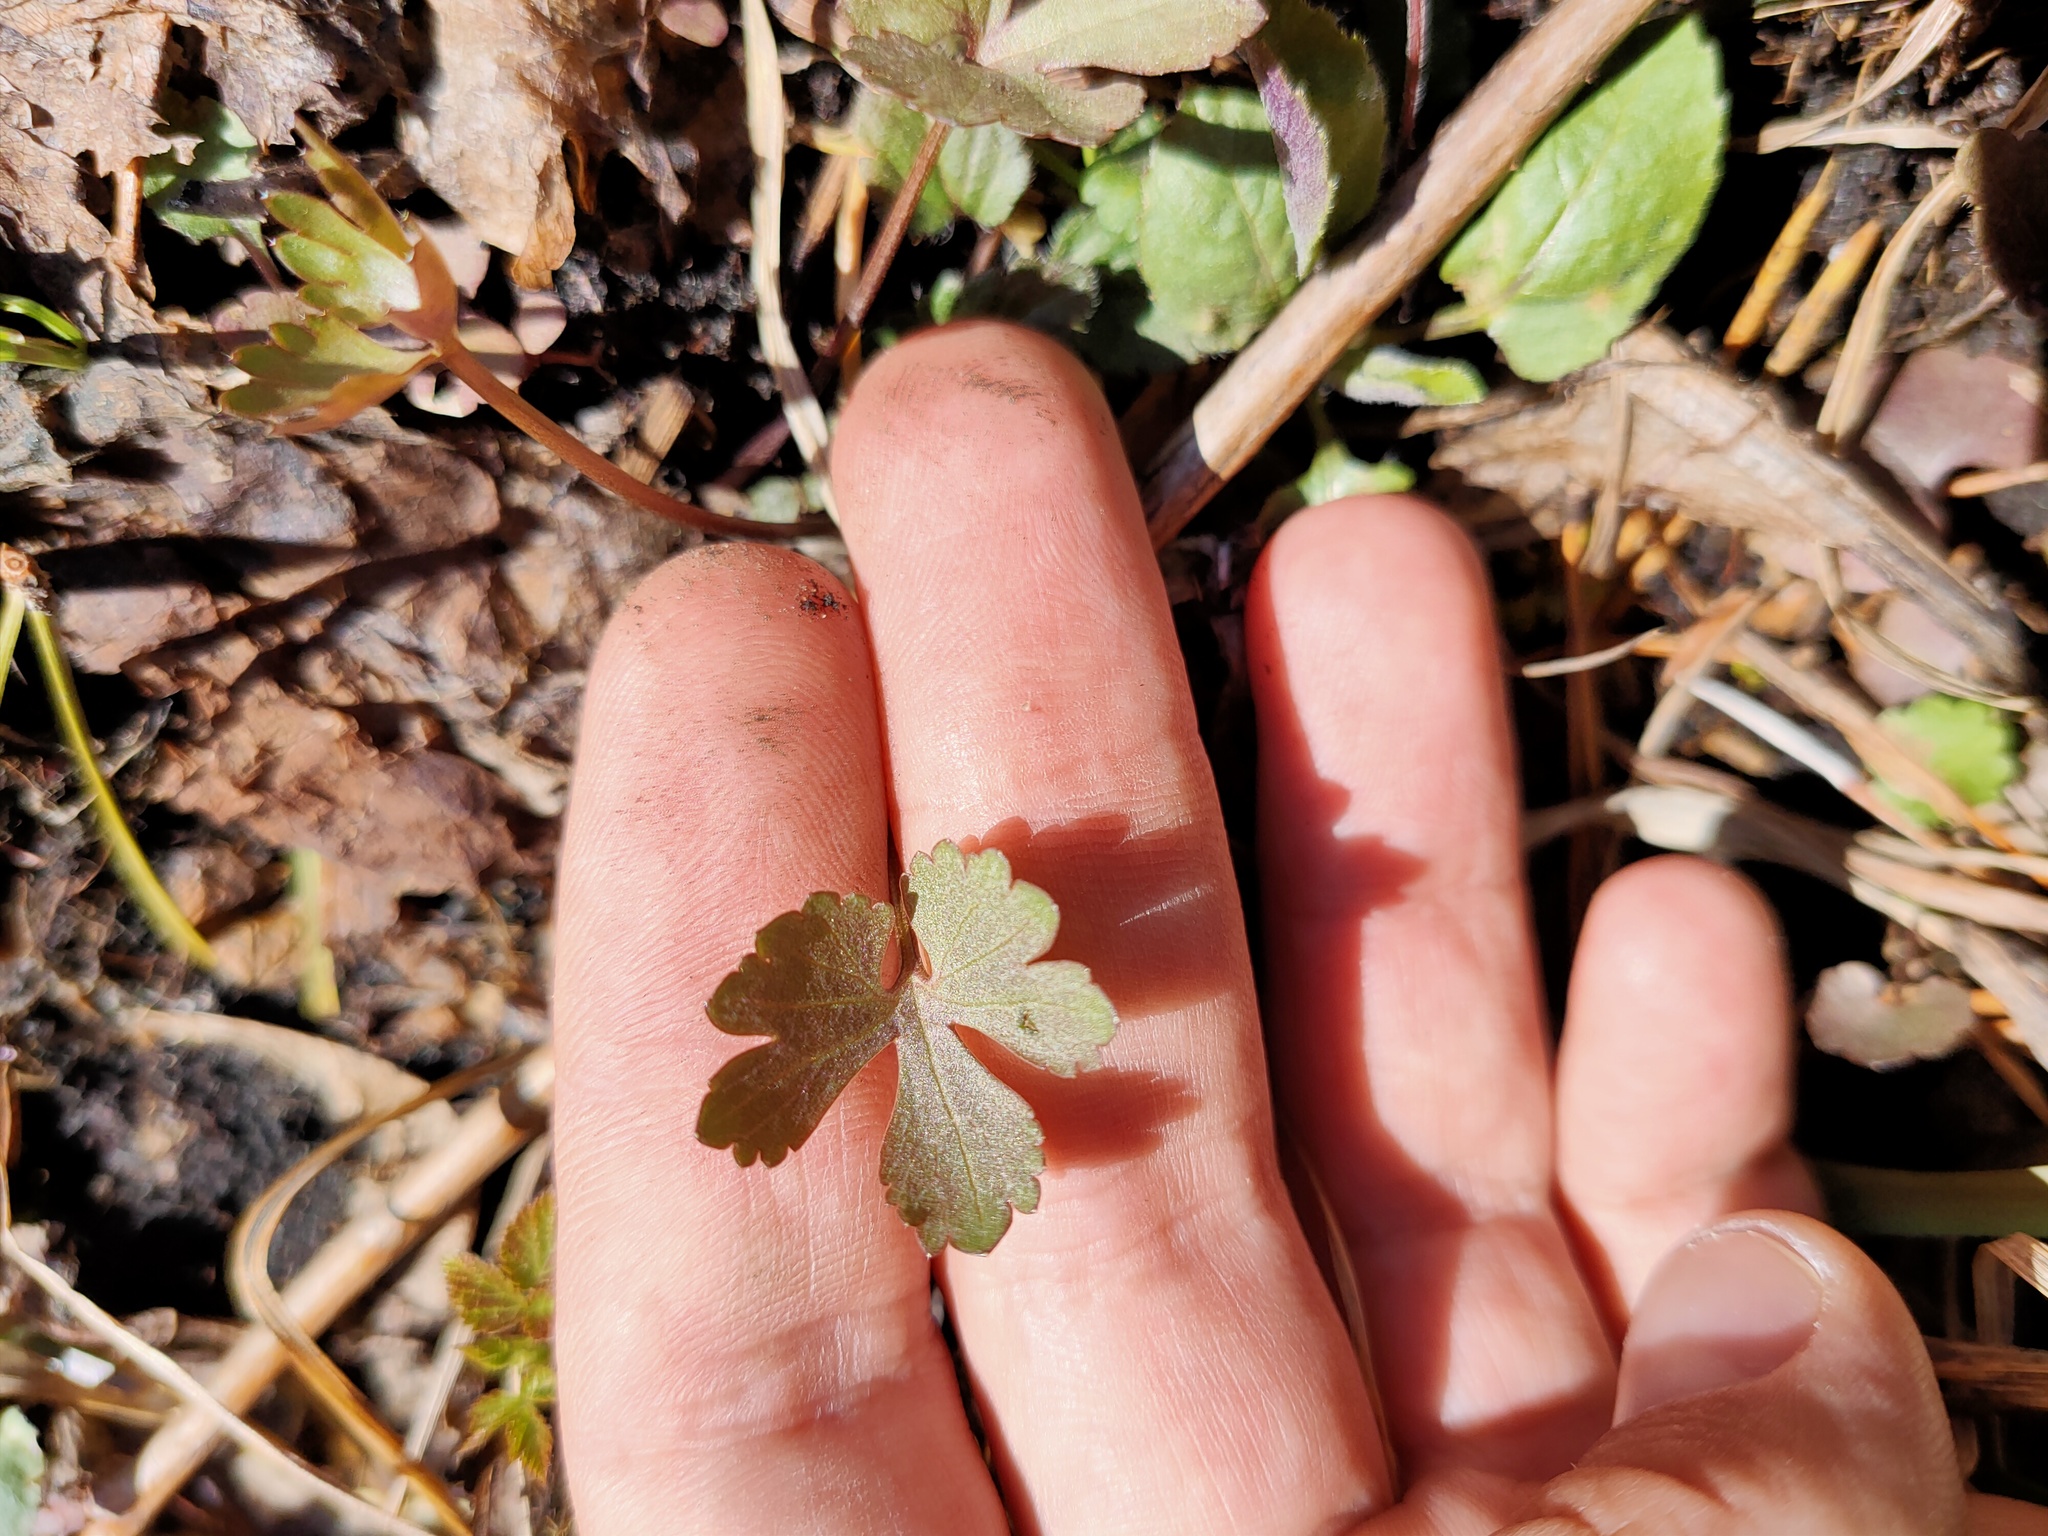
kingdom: Plantae
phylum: Tracheophyta
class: Magnoliopsida
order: Ranunculales
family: Ranunculaceae
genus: Ranunculus
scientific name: Ranunculus auricomus
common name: Goldilocks buttercup
